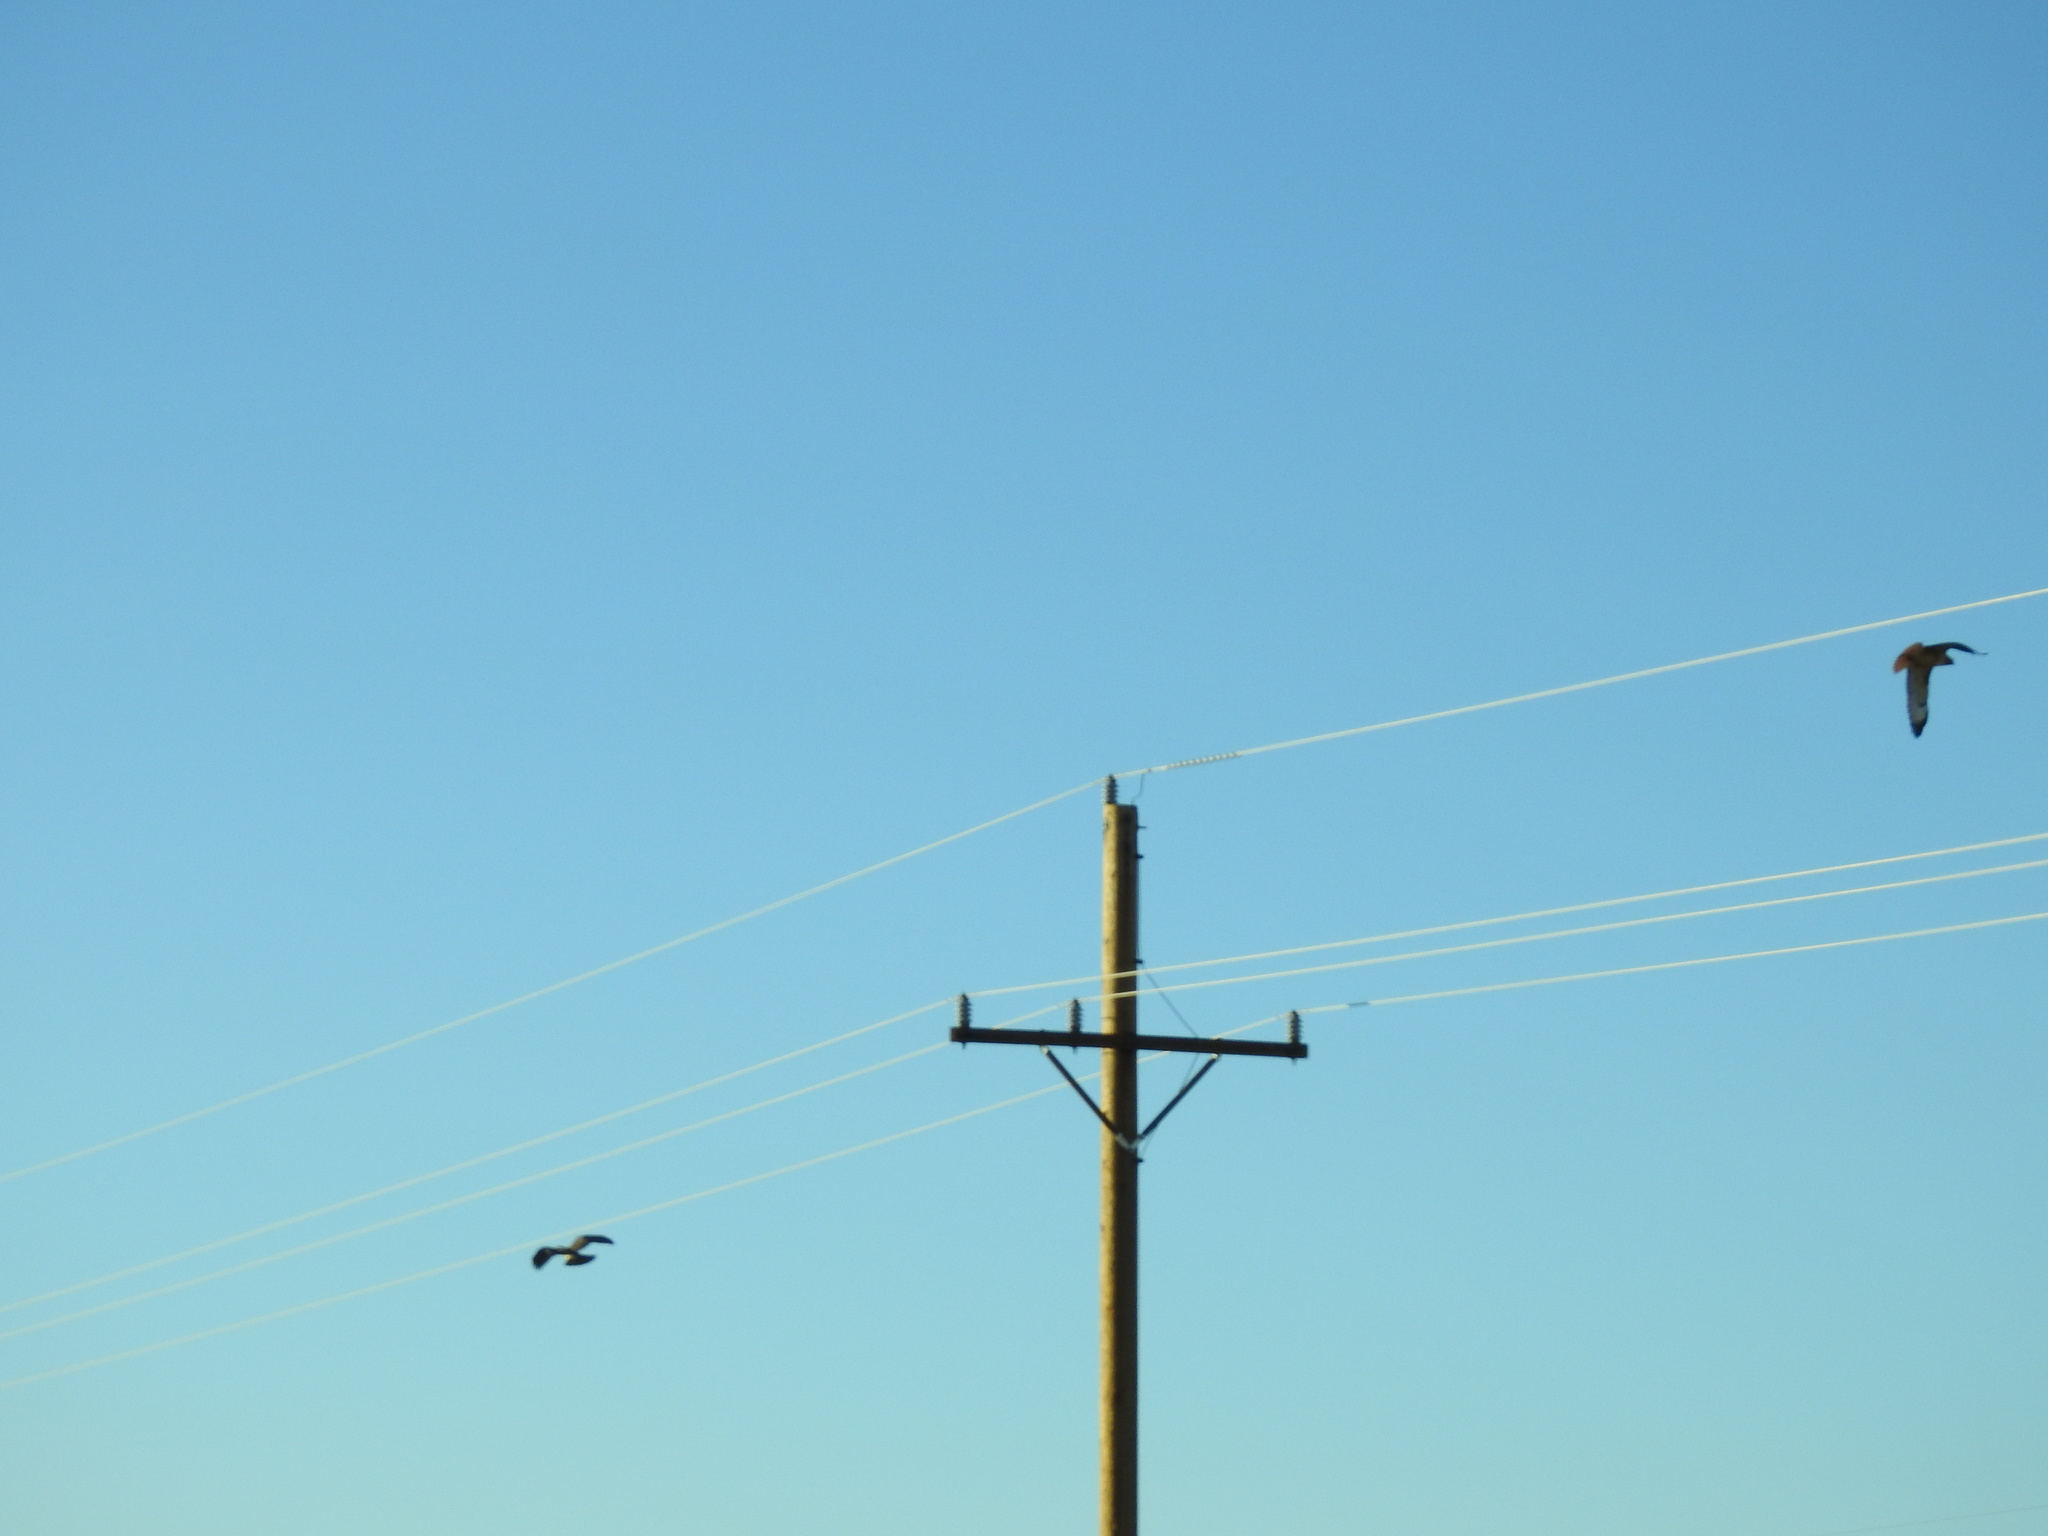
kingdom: Animalia
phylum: Chordata
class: Aves
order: Accipitriformes
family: Accipitridae
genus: Buteo
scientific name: Buteo jamaicensis
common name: Red-tailed hawk
